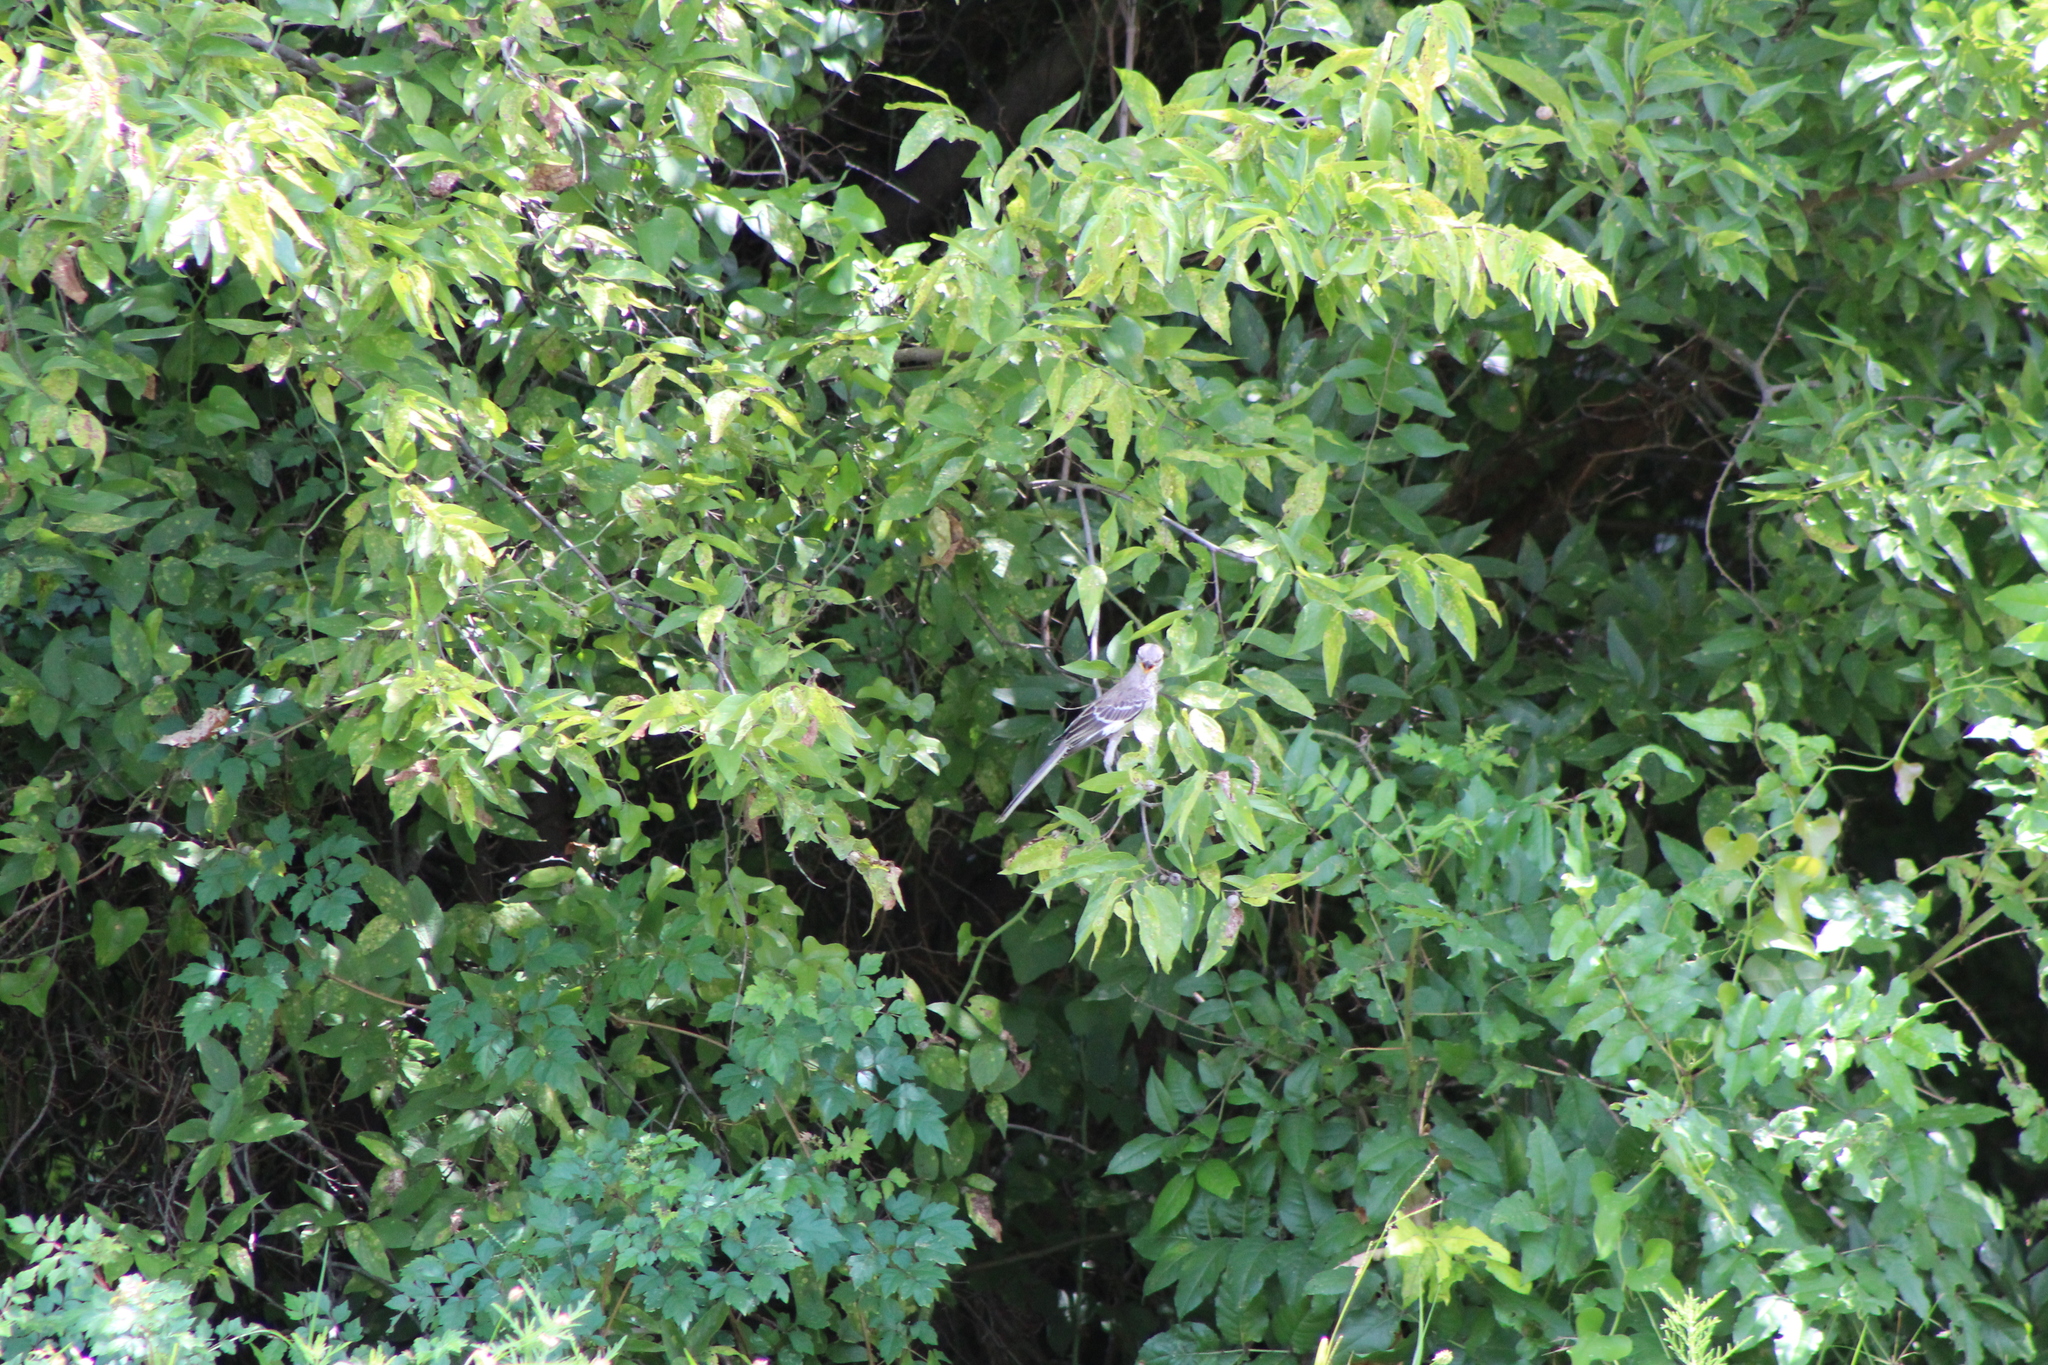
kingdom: Animalia
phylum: Chordata
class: Aves
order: Passeriformes
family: Mimidae
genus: Mimus
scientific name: Mimus polyglottos
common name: Northern mockingbird
